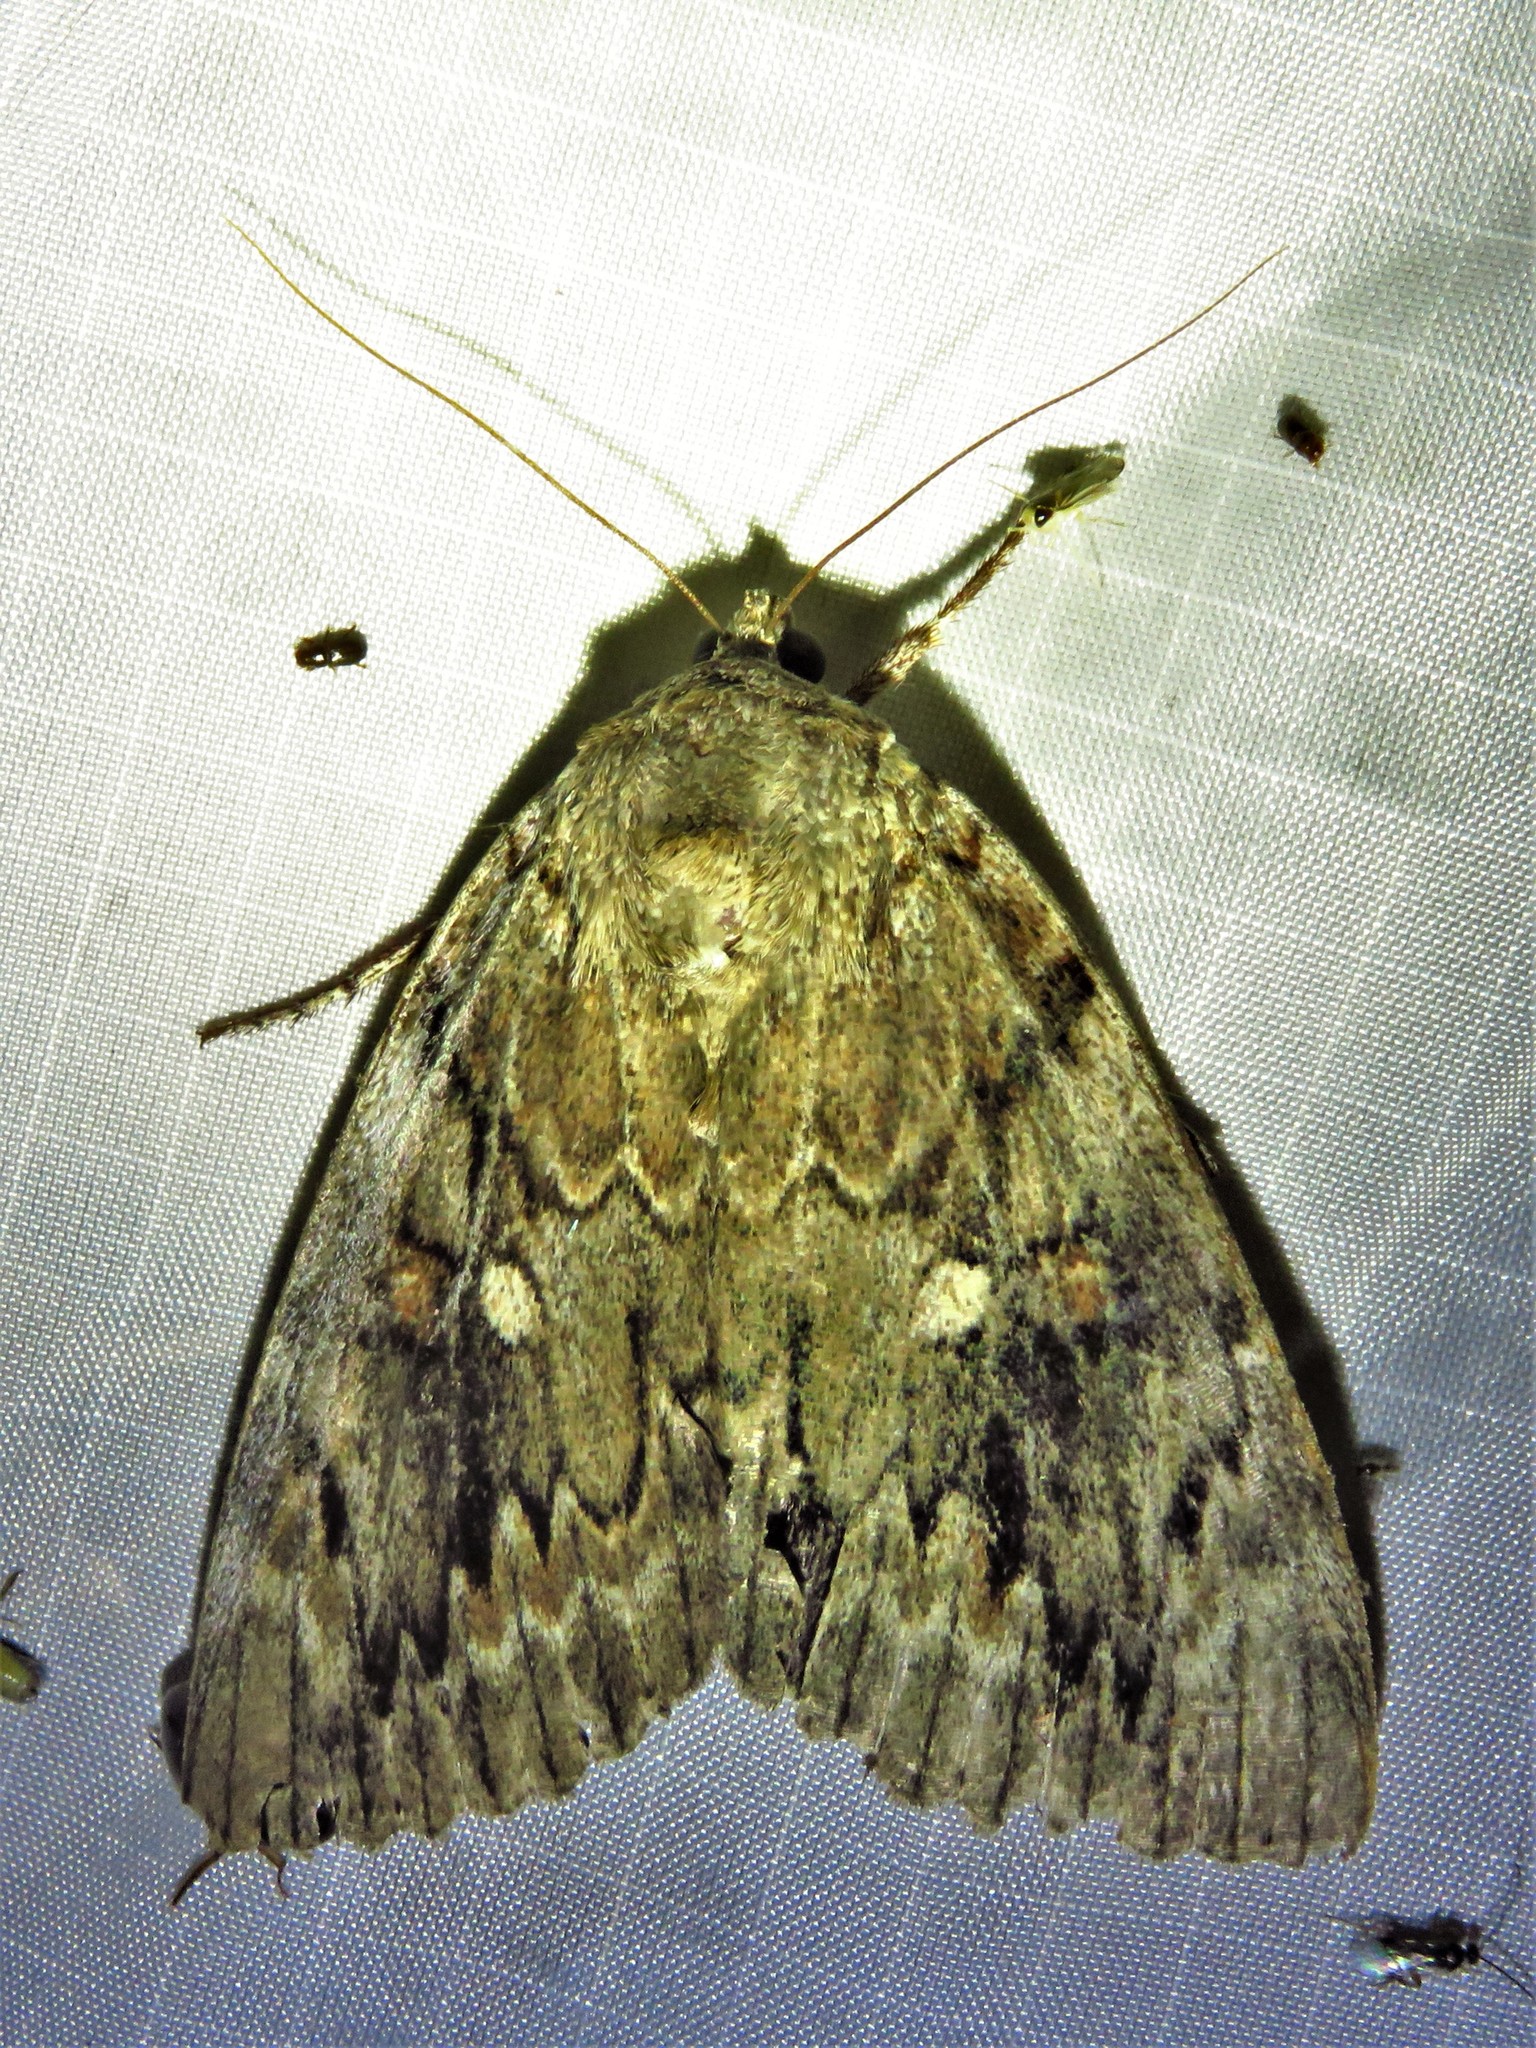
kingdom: Animalia
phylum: Arthropoda
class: Insecta
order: Lepidoptera
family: Erebidae
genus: Catocala
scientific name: Catocala agrippina
